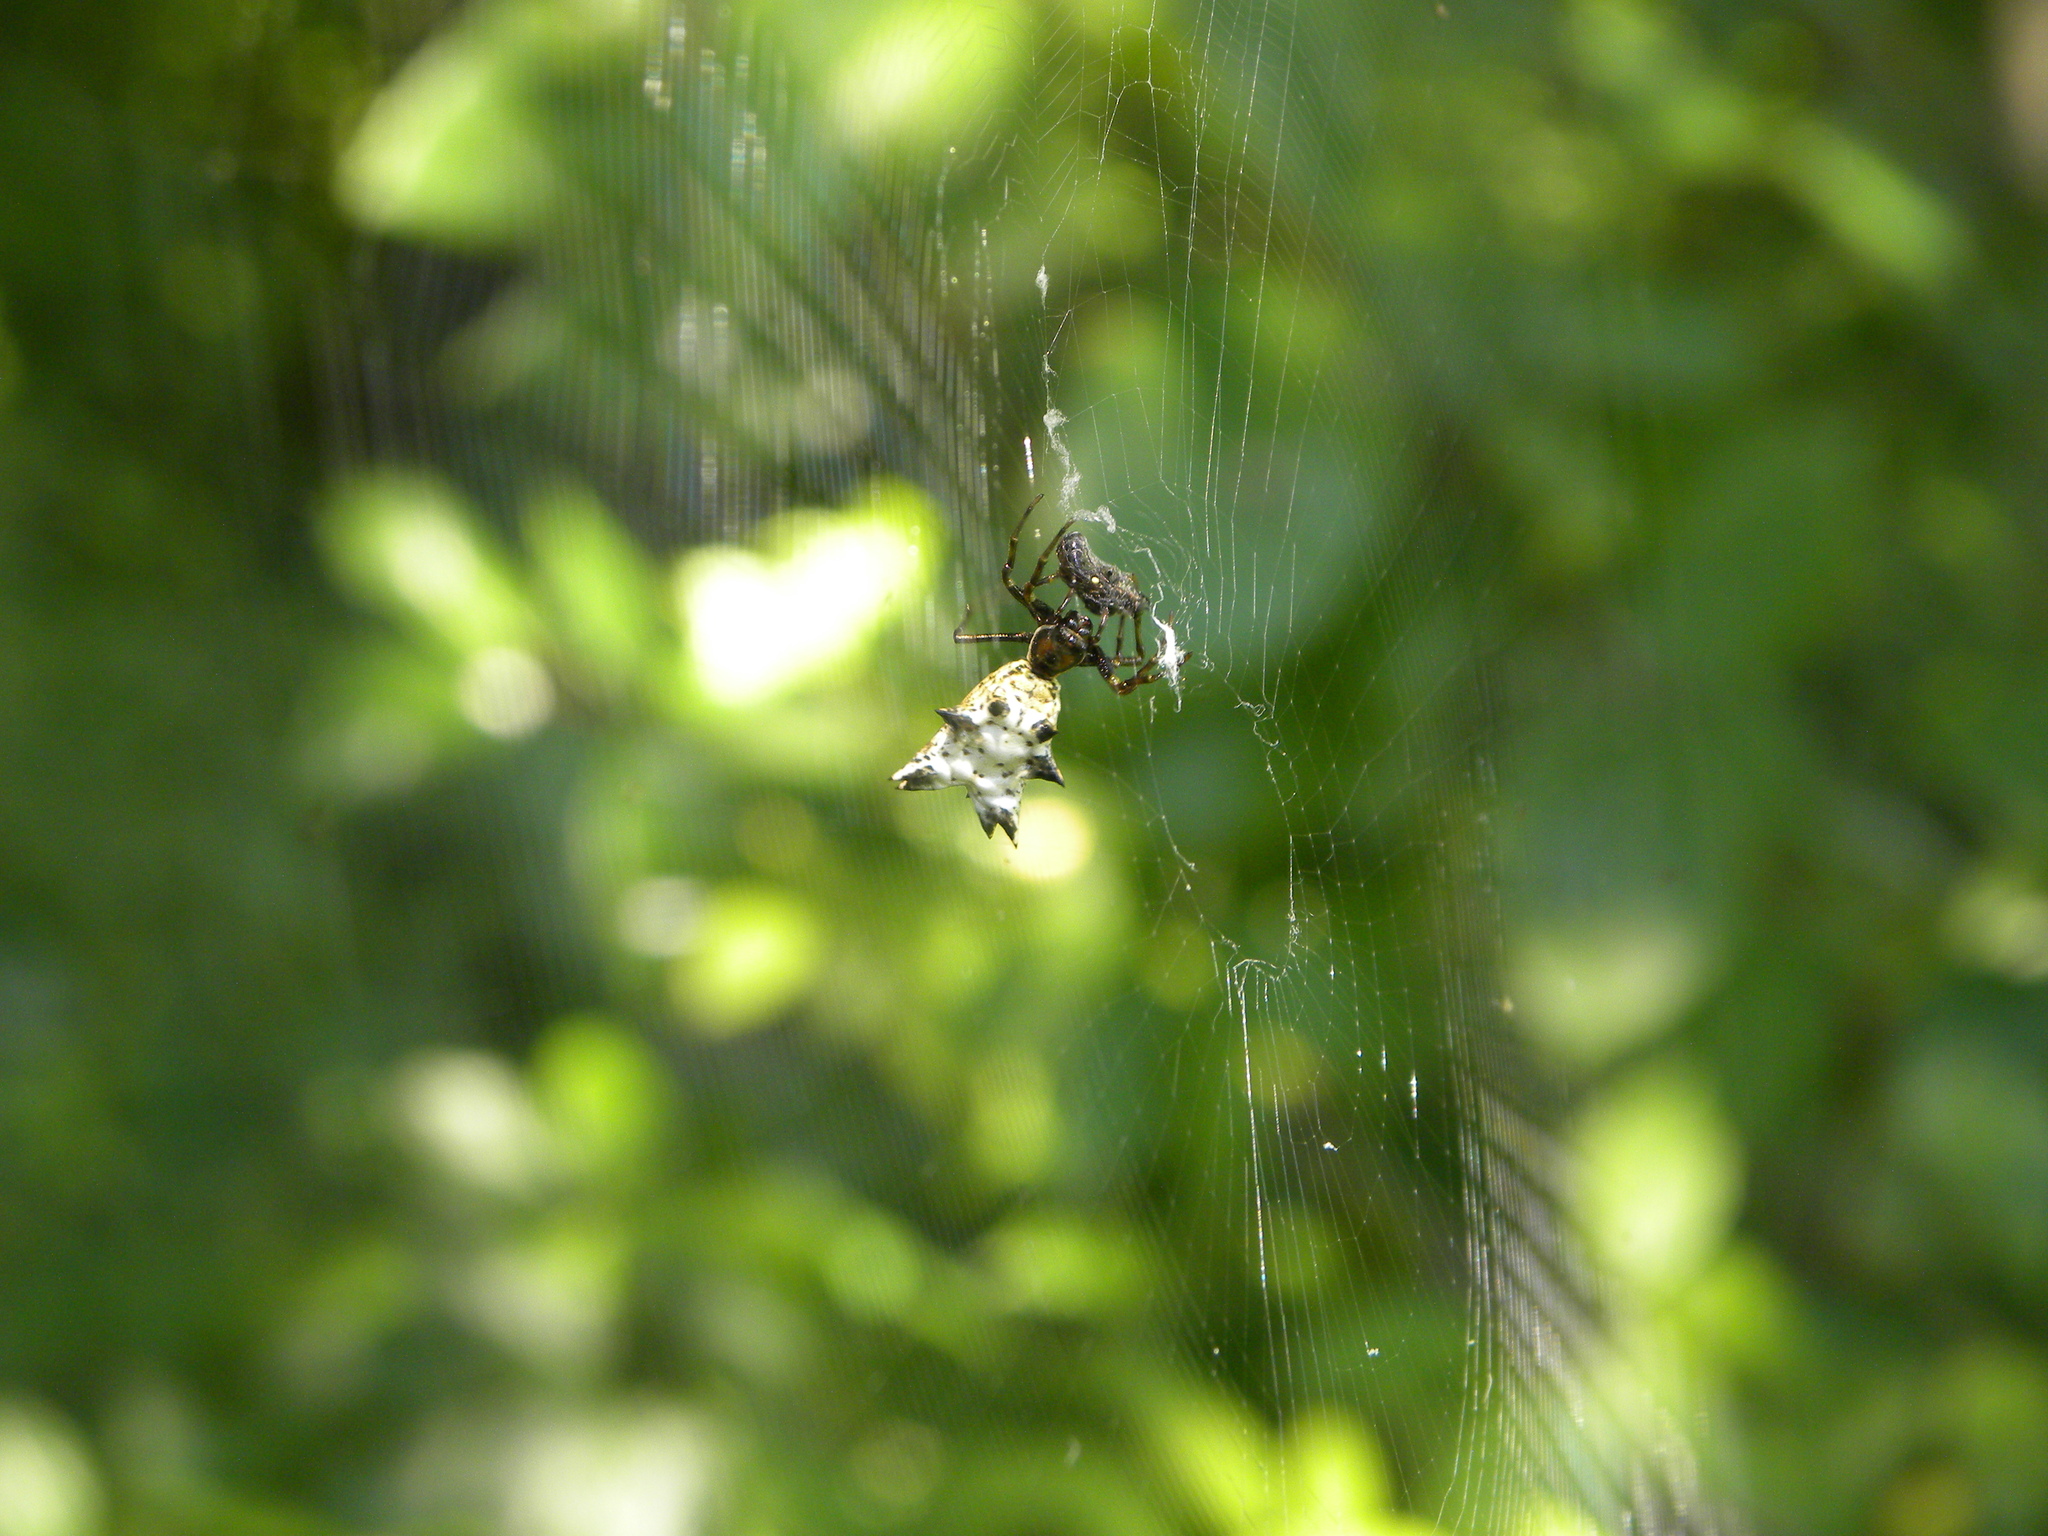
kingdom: Animalia
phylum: Arthropoda
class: Arachnida
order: Araneae
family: Araneidae
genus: Micrathena
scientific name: Micrathena gracilis
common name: Orb weavers
